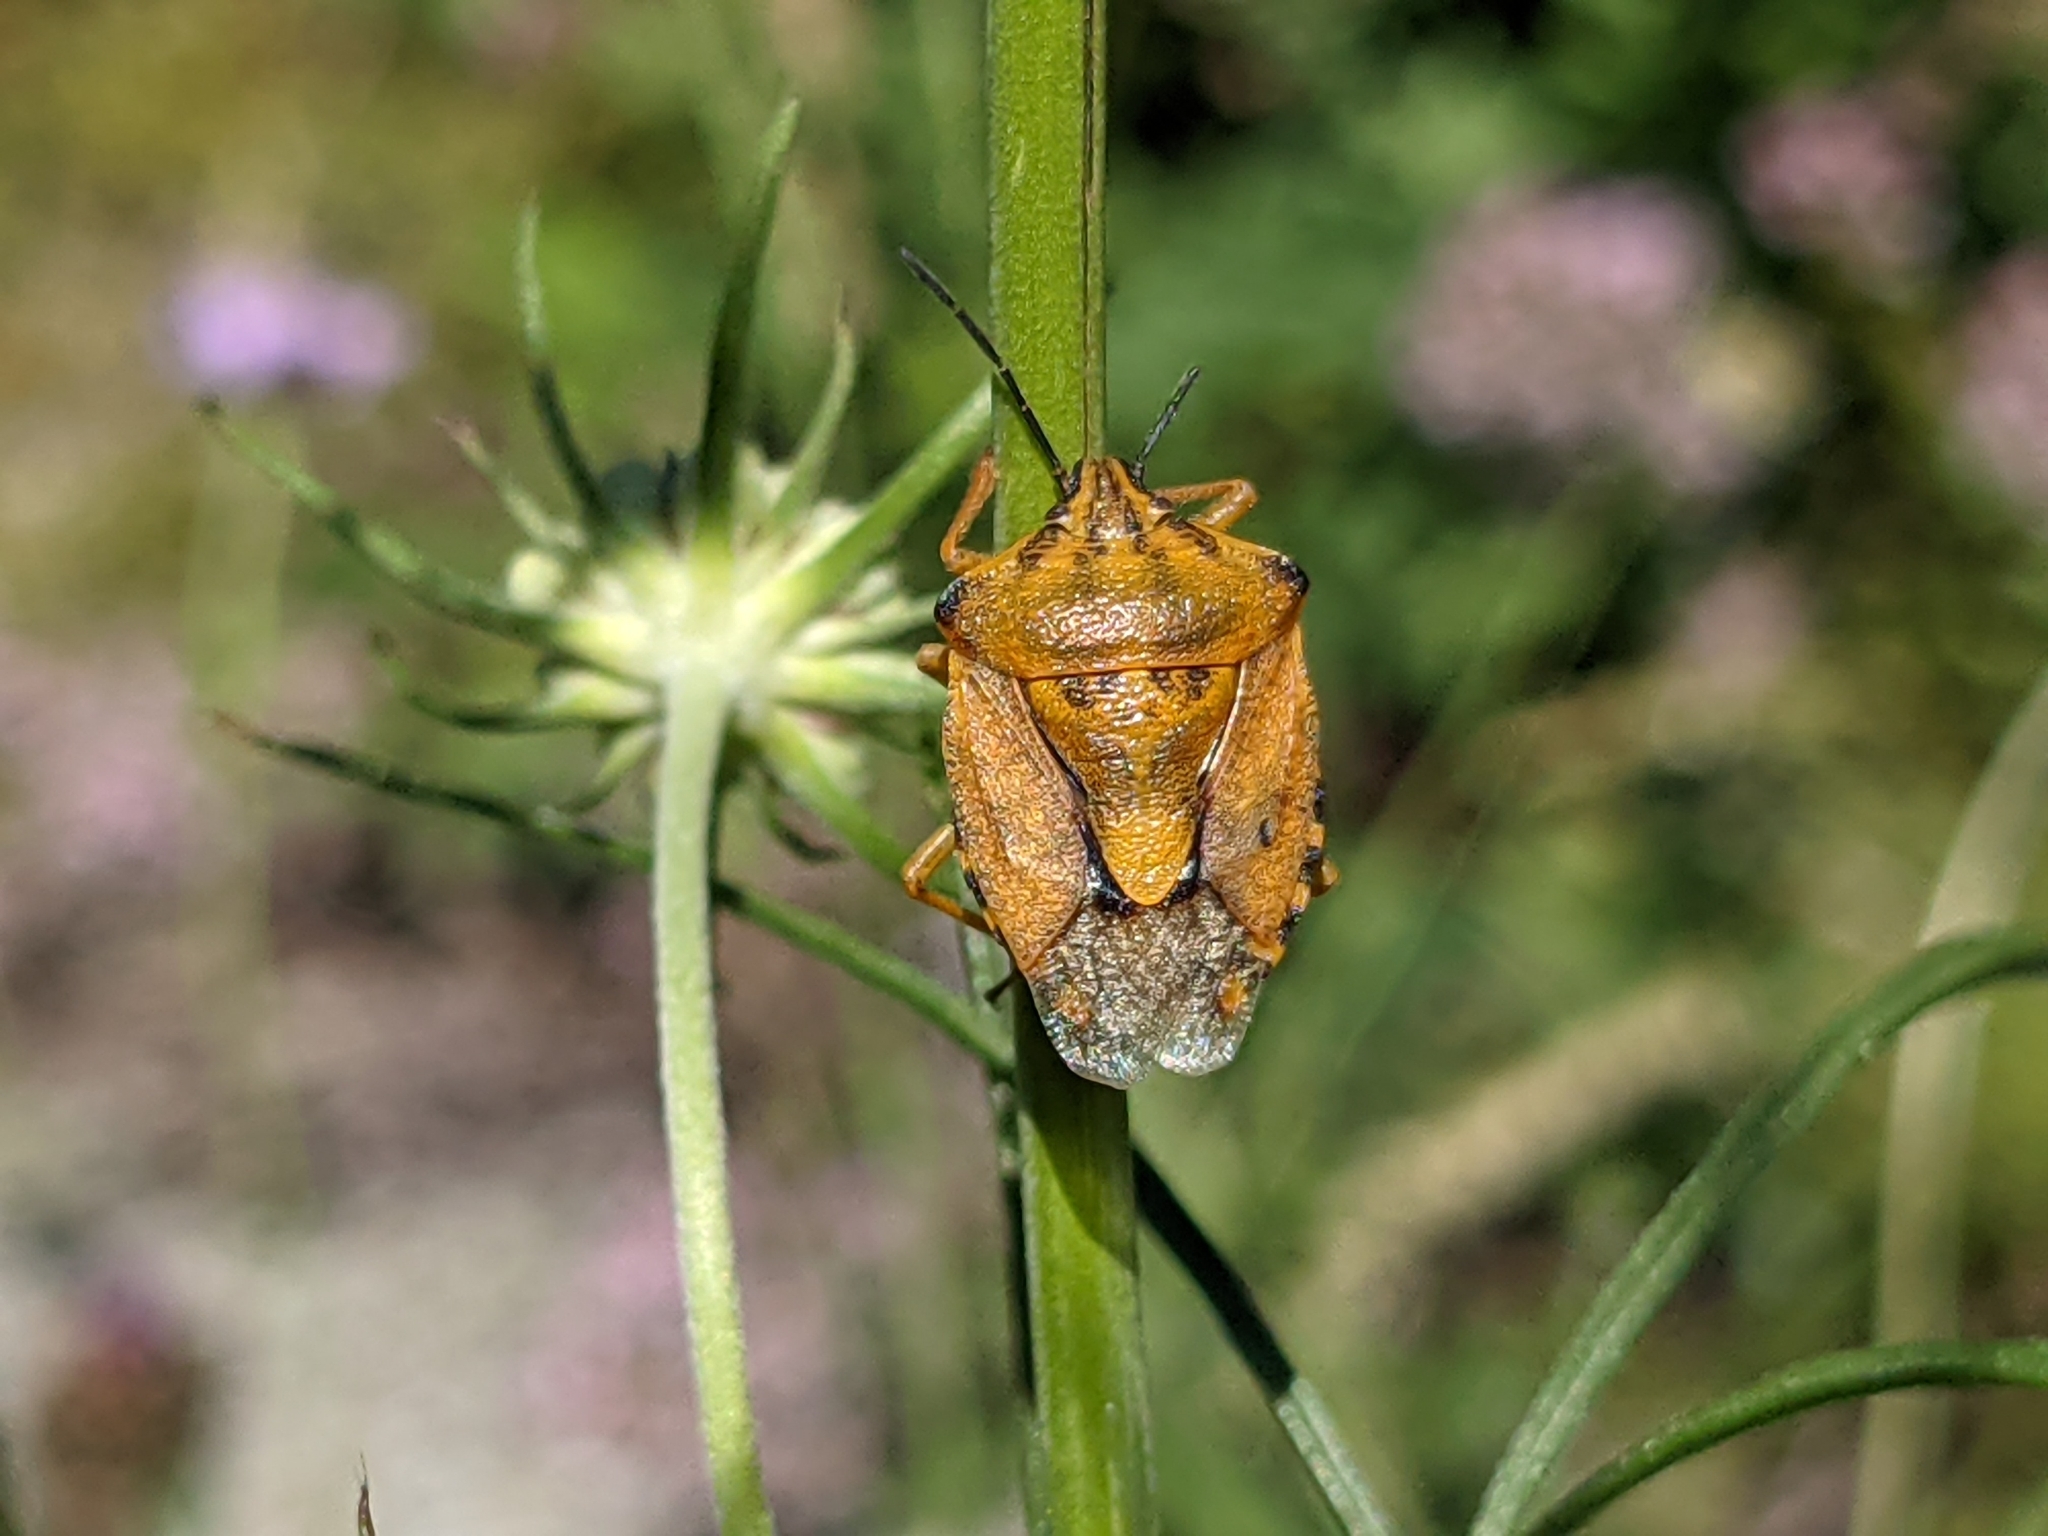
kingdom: Animalia
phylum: Arthropoda
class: Insecta
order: Hemiptera
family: Pentatomidae
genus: Carpocoris
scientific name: Carpocoris purpureipennis
